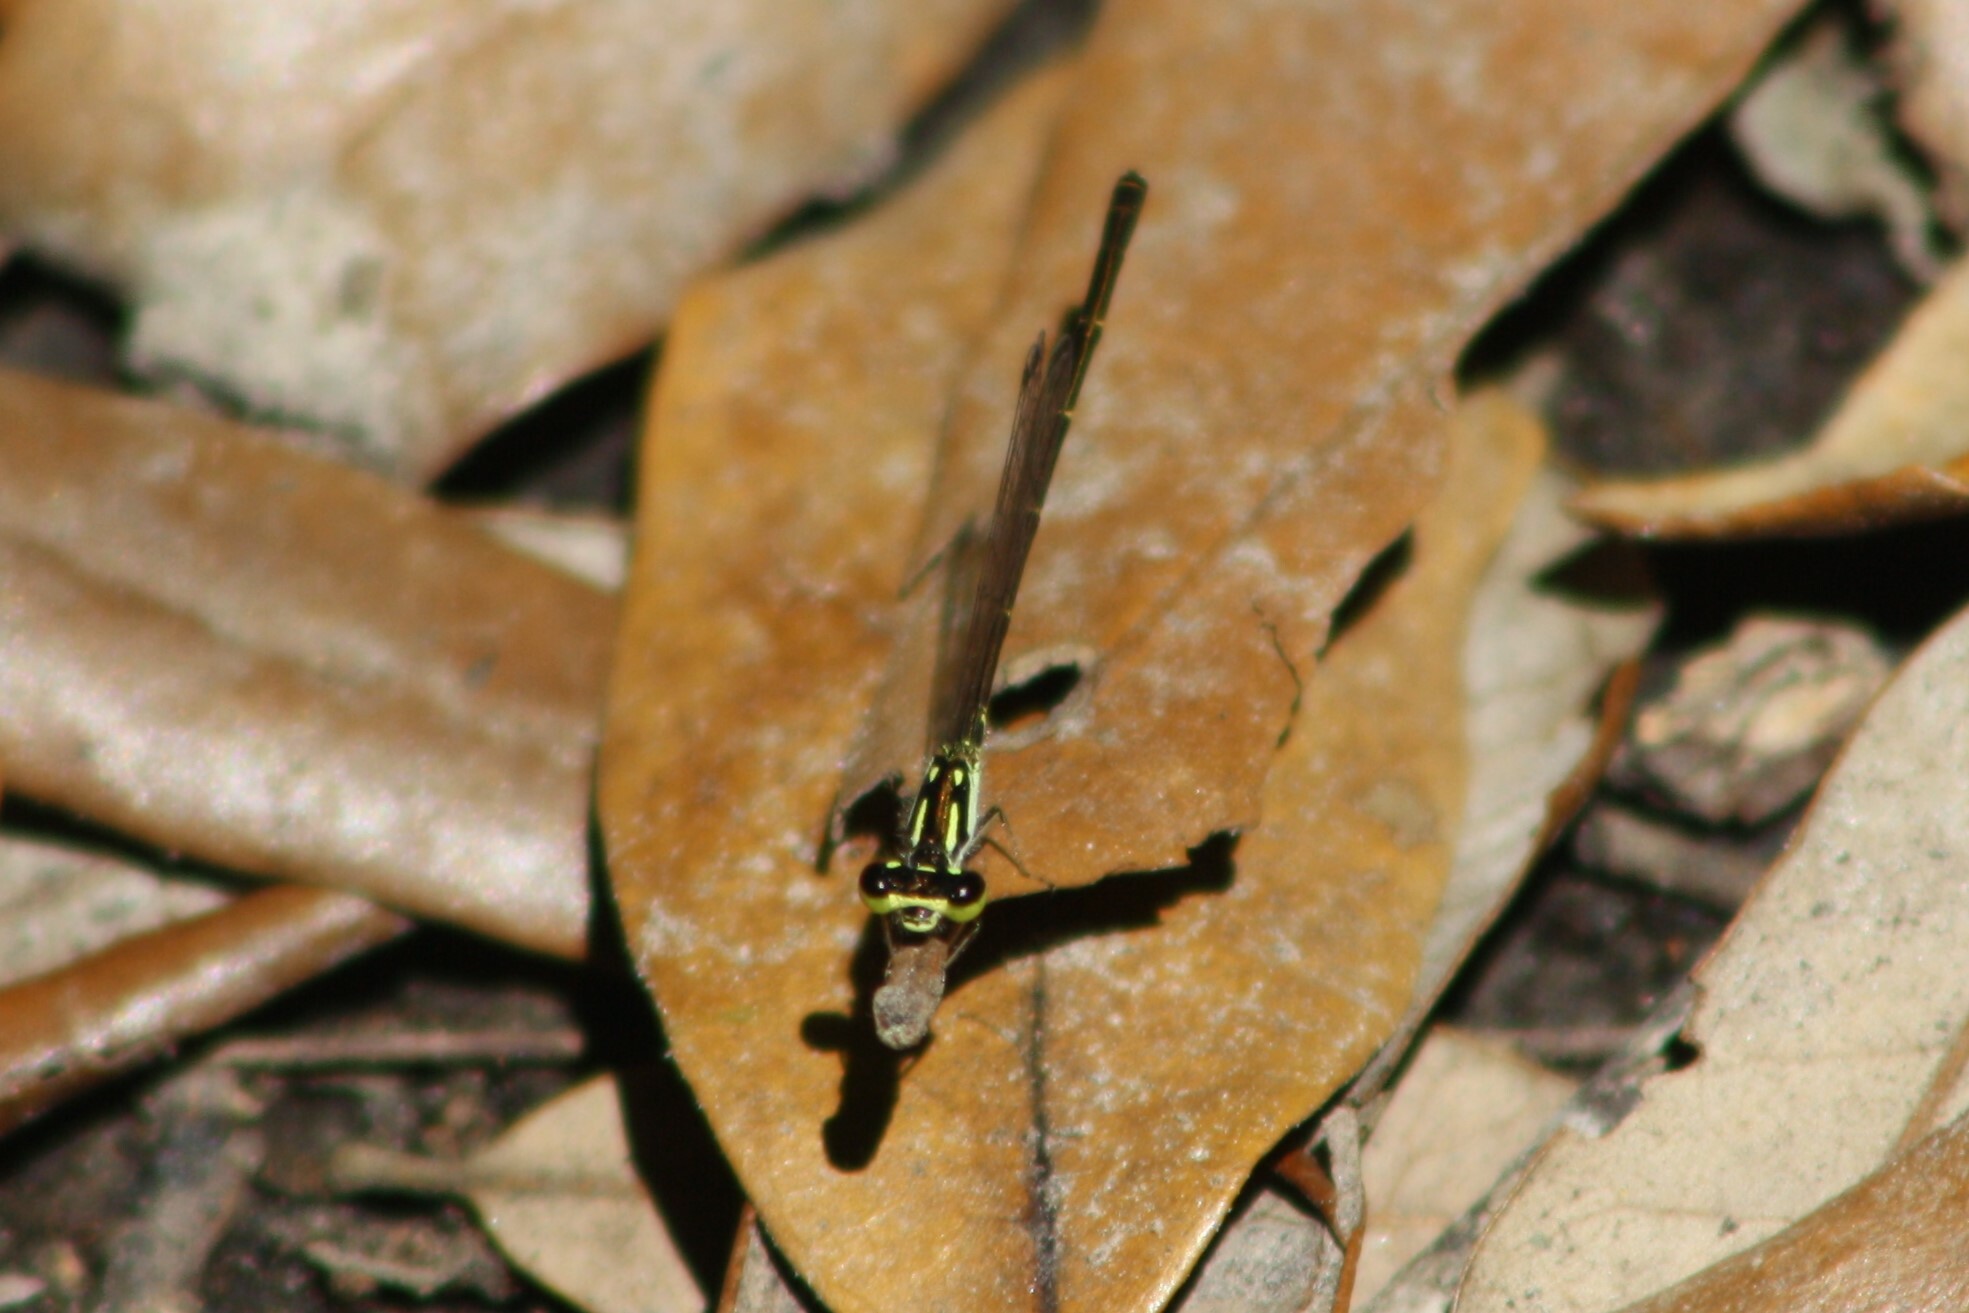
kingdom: Animalia
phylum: Arthropoda
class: Insecta
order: Odonata
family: Coenagrionidae
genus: Ischnura
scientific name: Ischnura posita
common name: Fragile forktail
